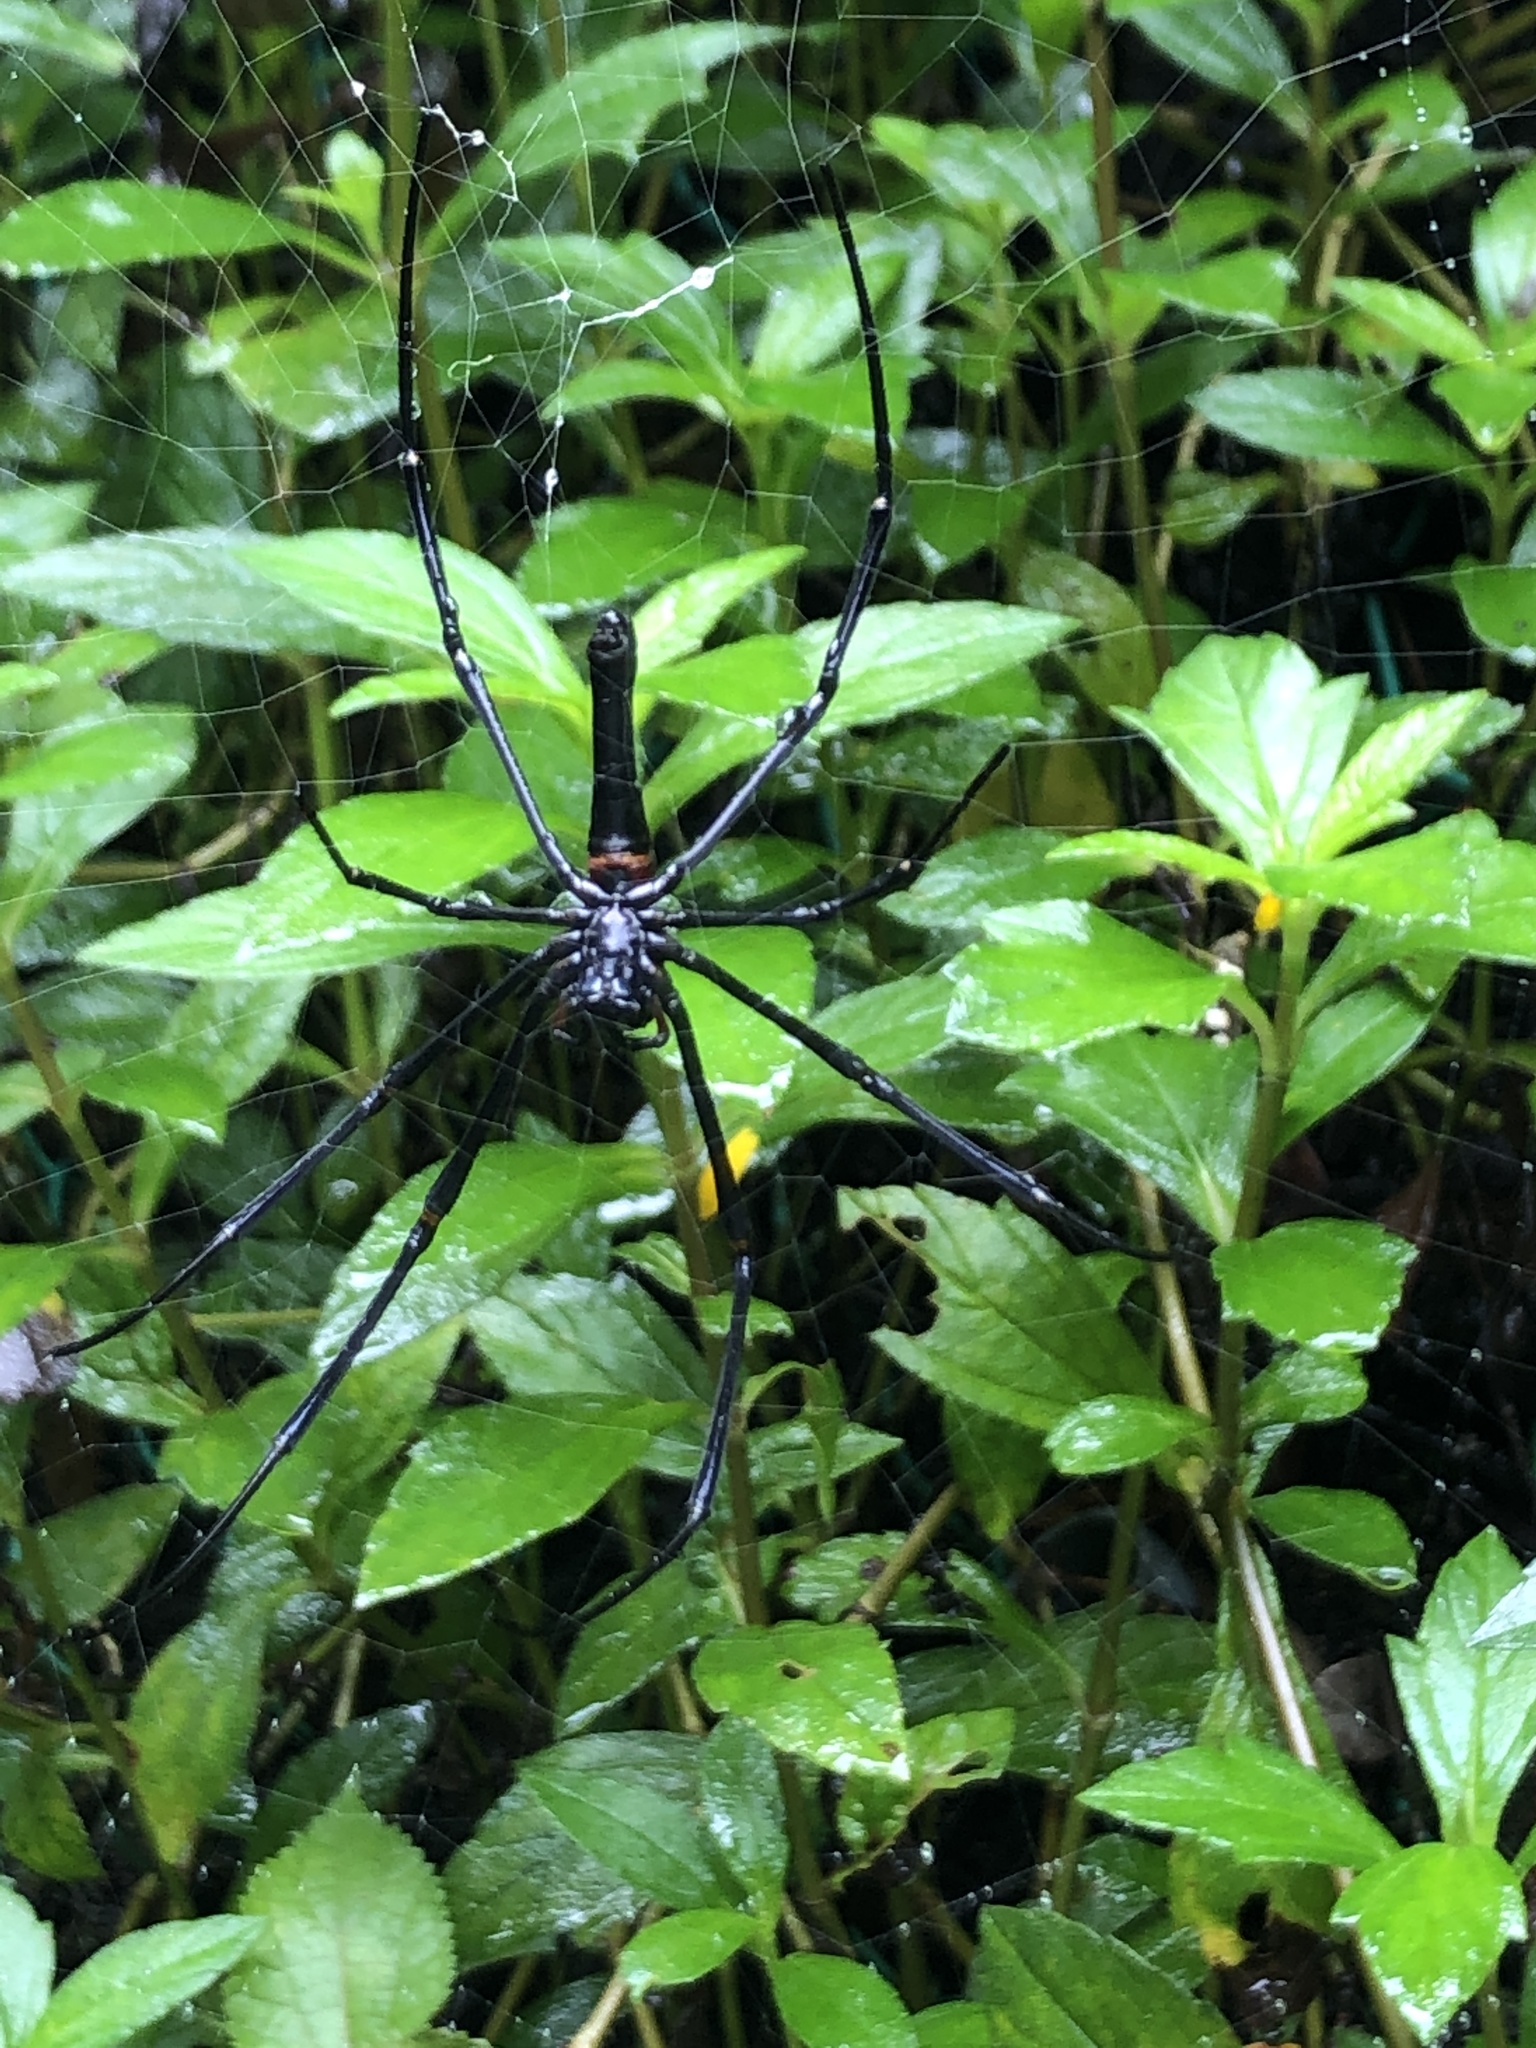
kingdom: Animalia
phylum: Arthropoda
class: Arachnida
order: Araneae
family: Araneidae
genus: Nephila
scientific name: Nephila pilipes
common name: Giant golden orb weaver
